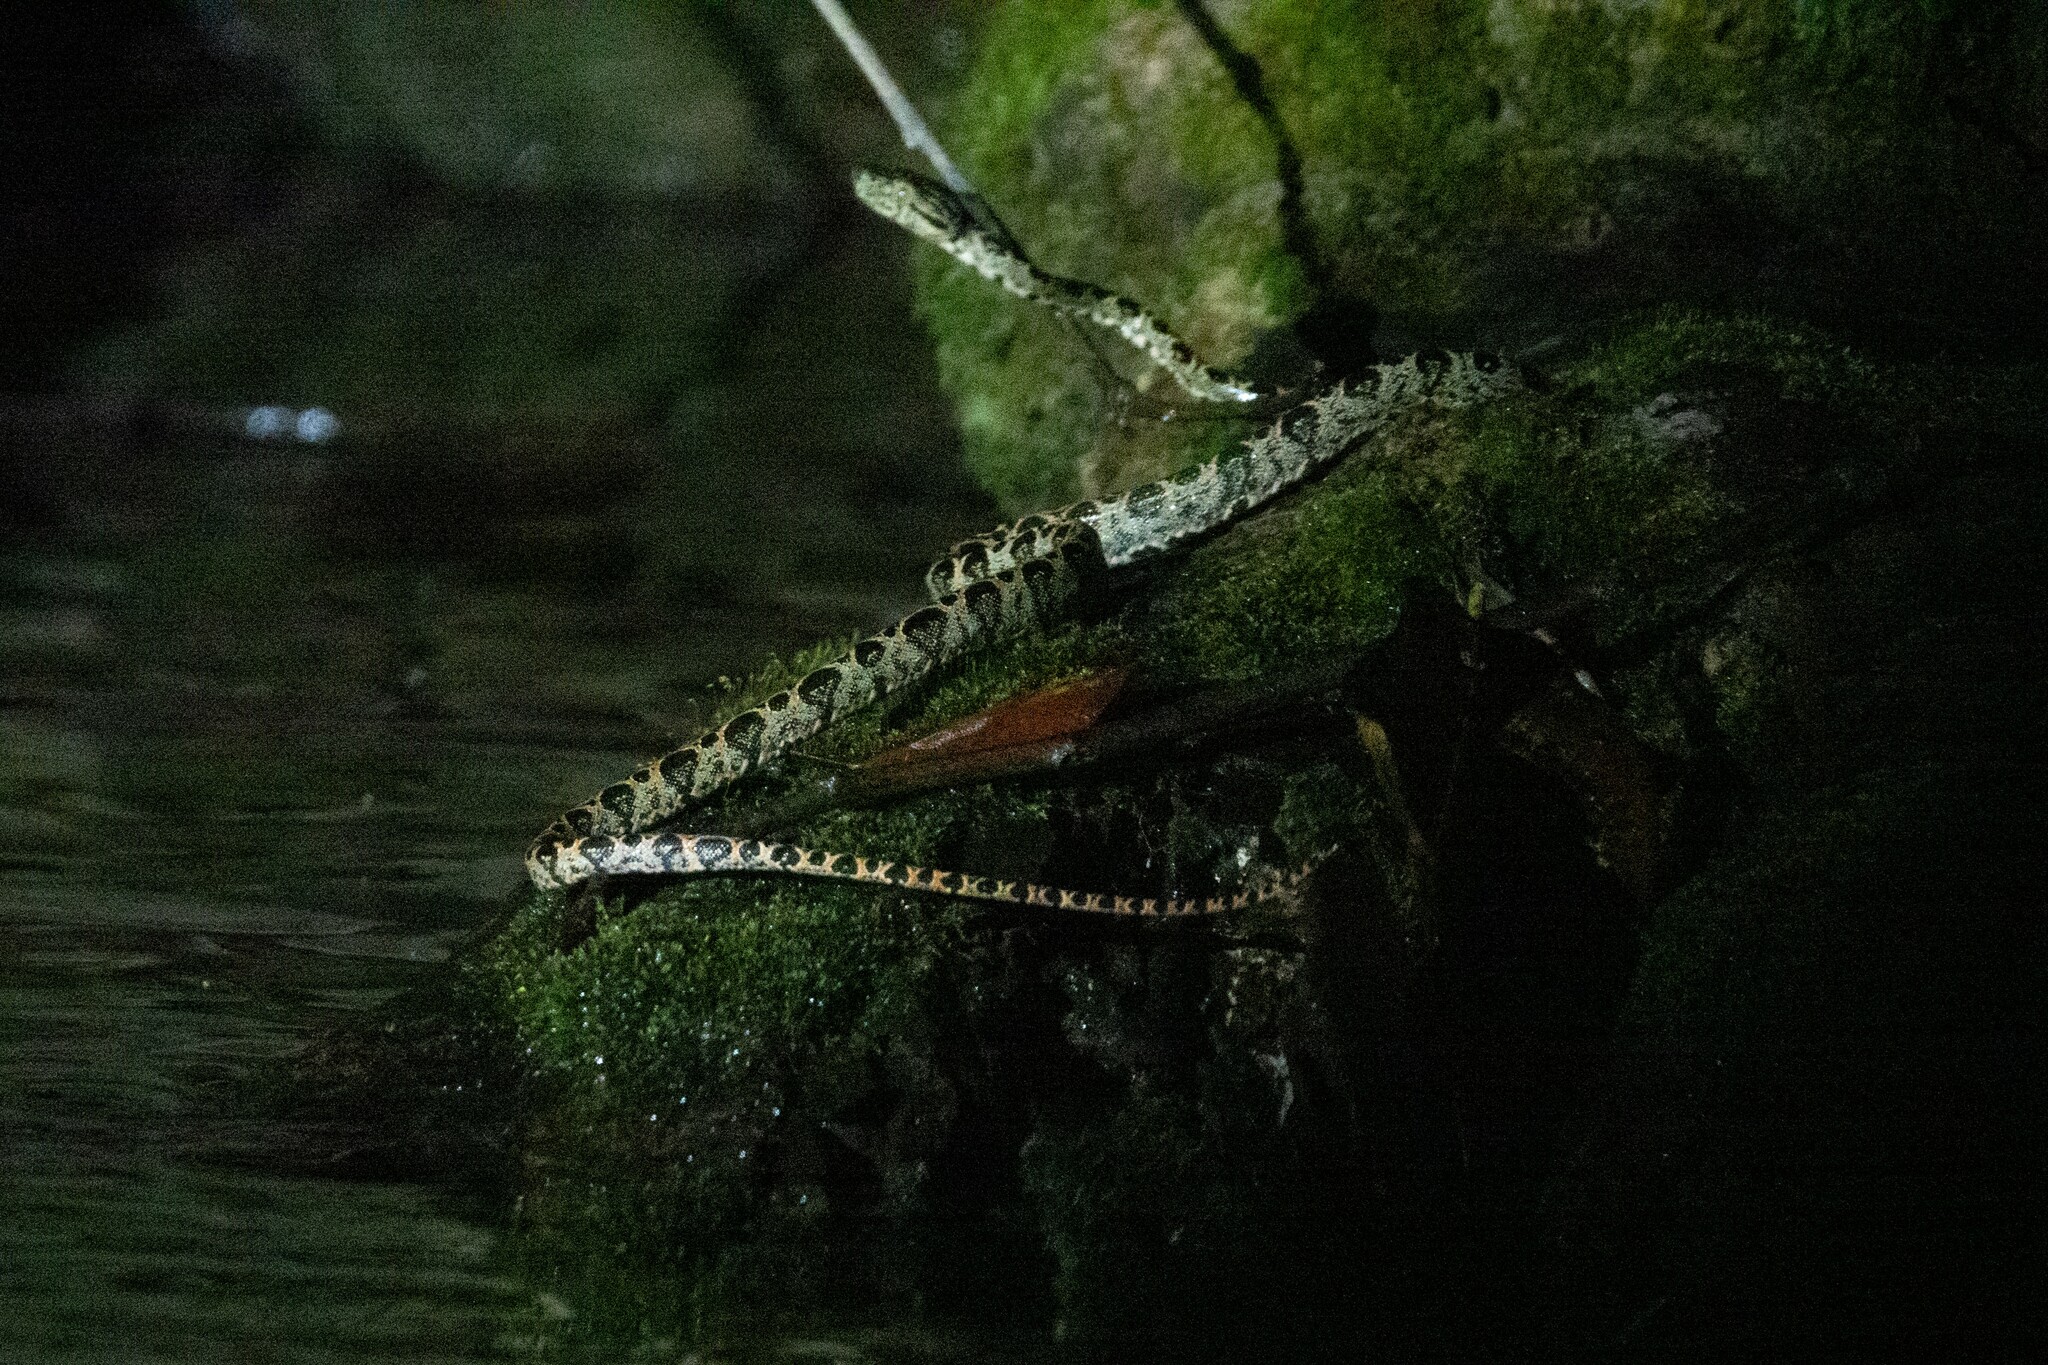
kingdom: Animalia
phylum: Chordata
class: Squamata
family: Boidae
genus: Corallus
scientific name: Corallus hortulana
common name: Garden tree boa
